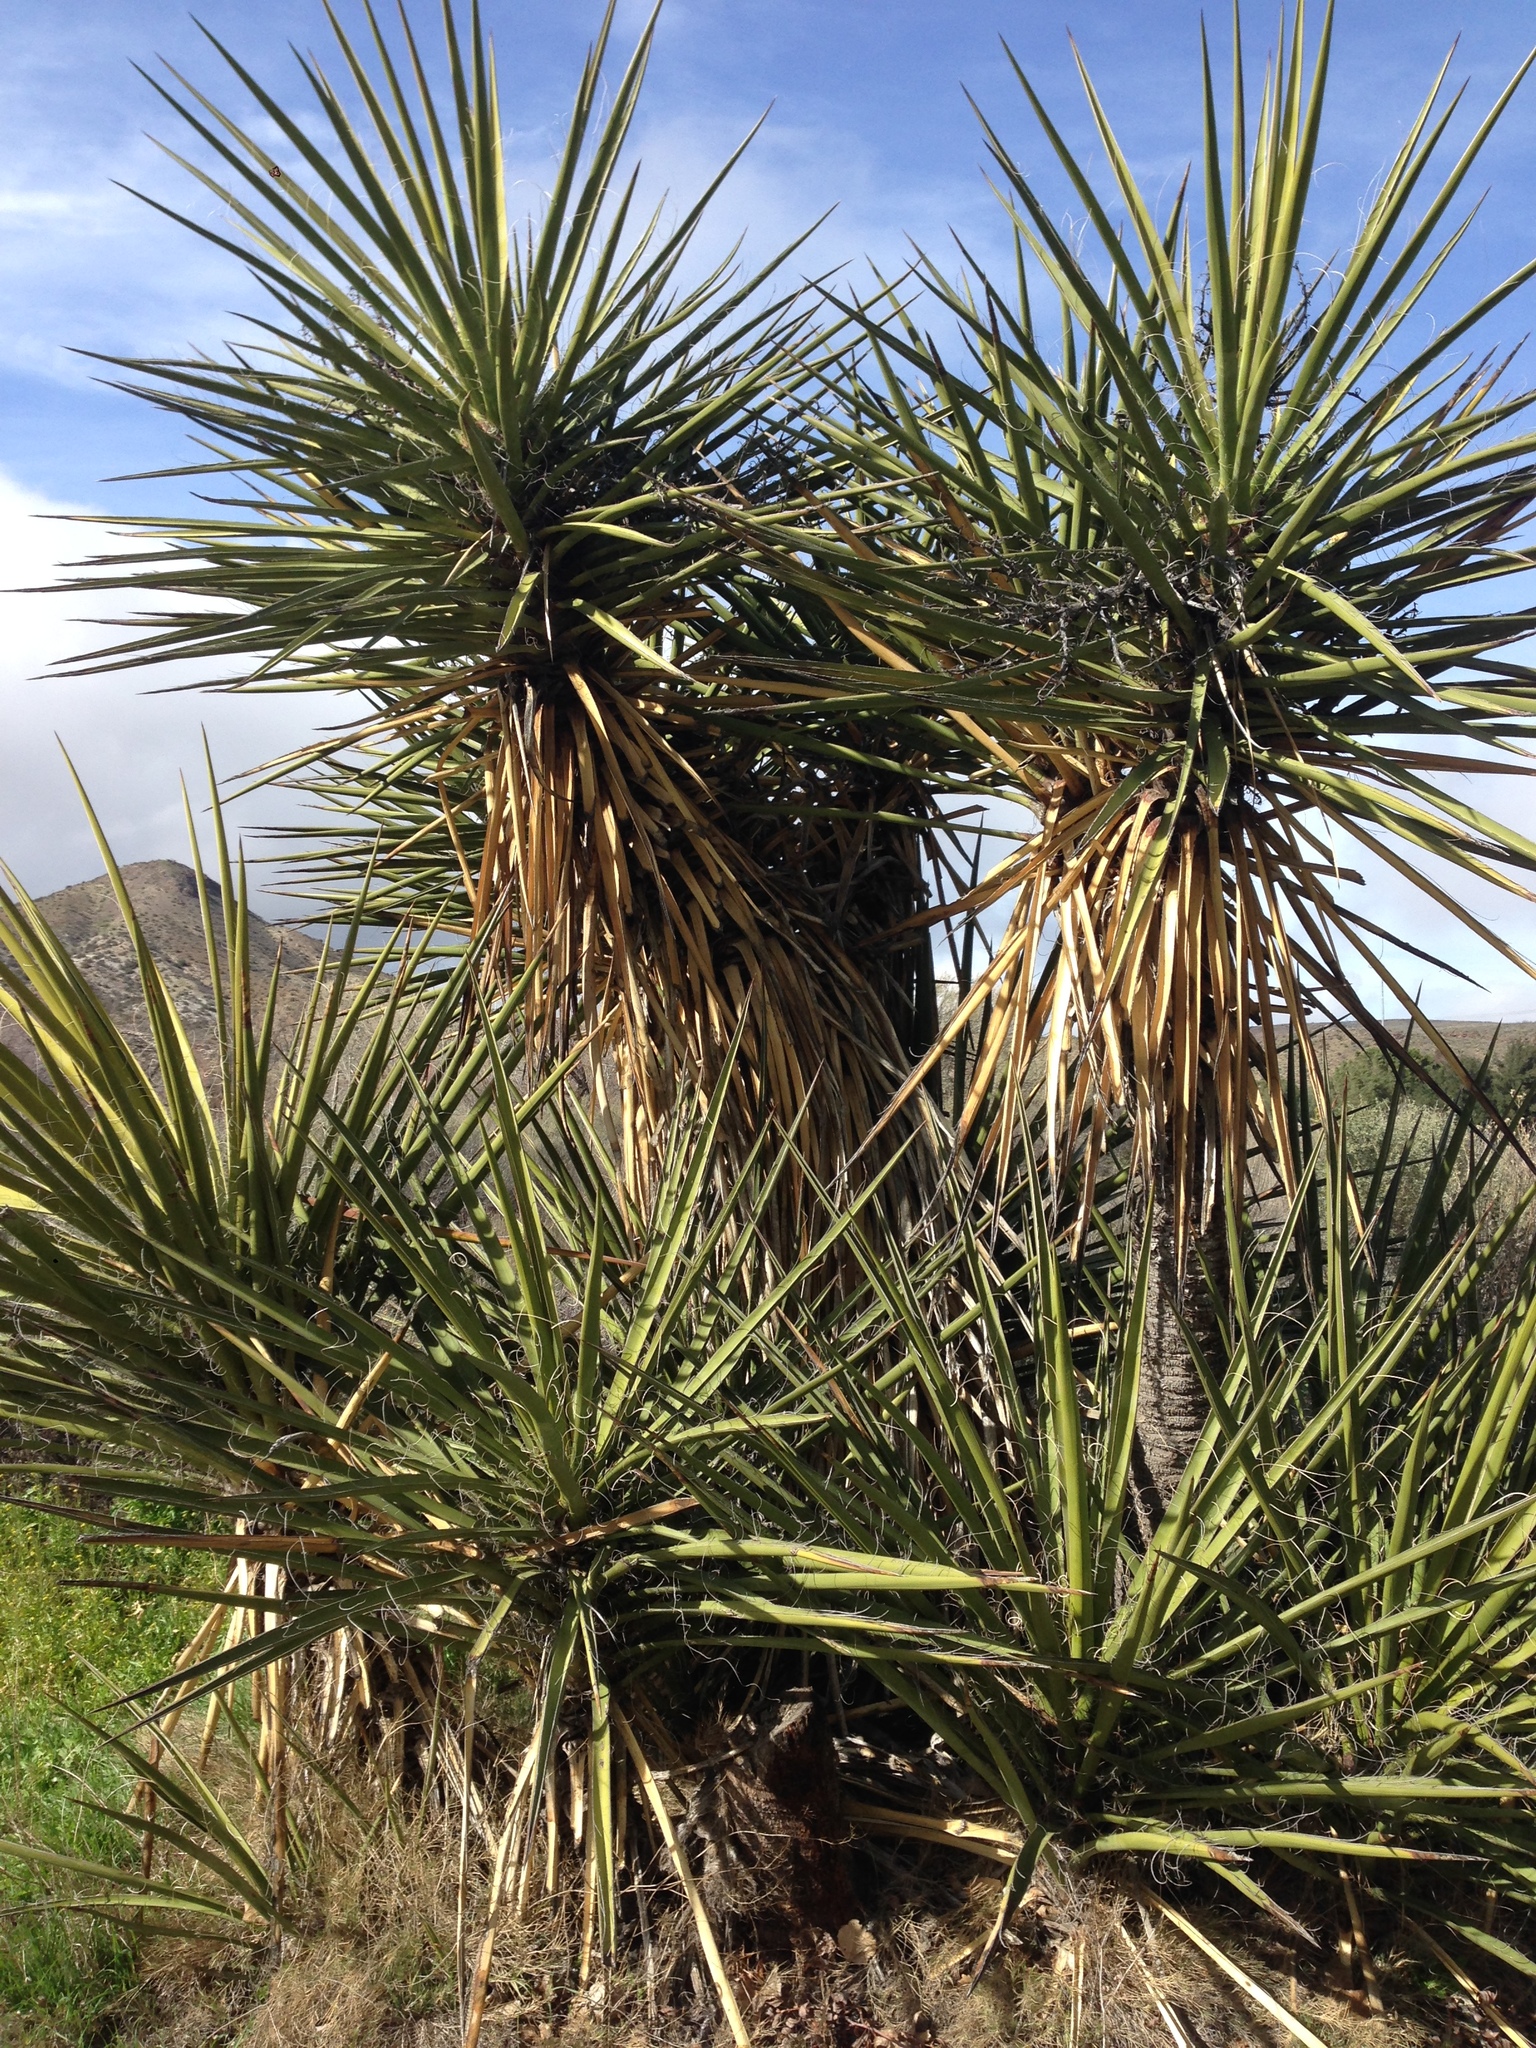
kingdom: Plantae
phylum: Tracheophyta
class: Liliopsida
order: Asparagales
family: Asparagaceae
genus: Yucca
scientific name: Yucca schidigera
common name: Mojave yucca
